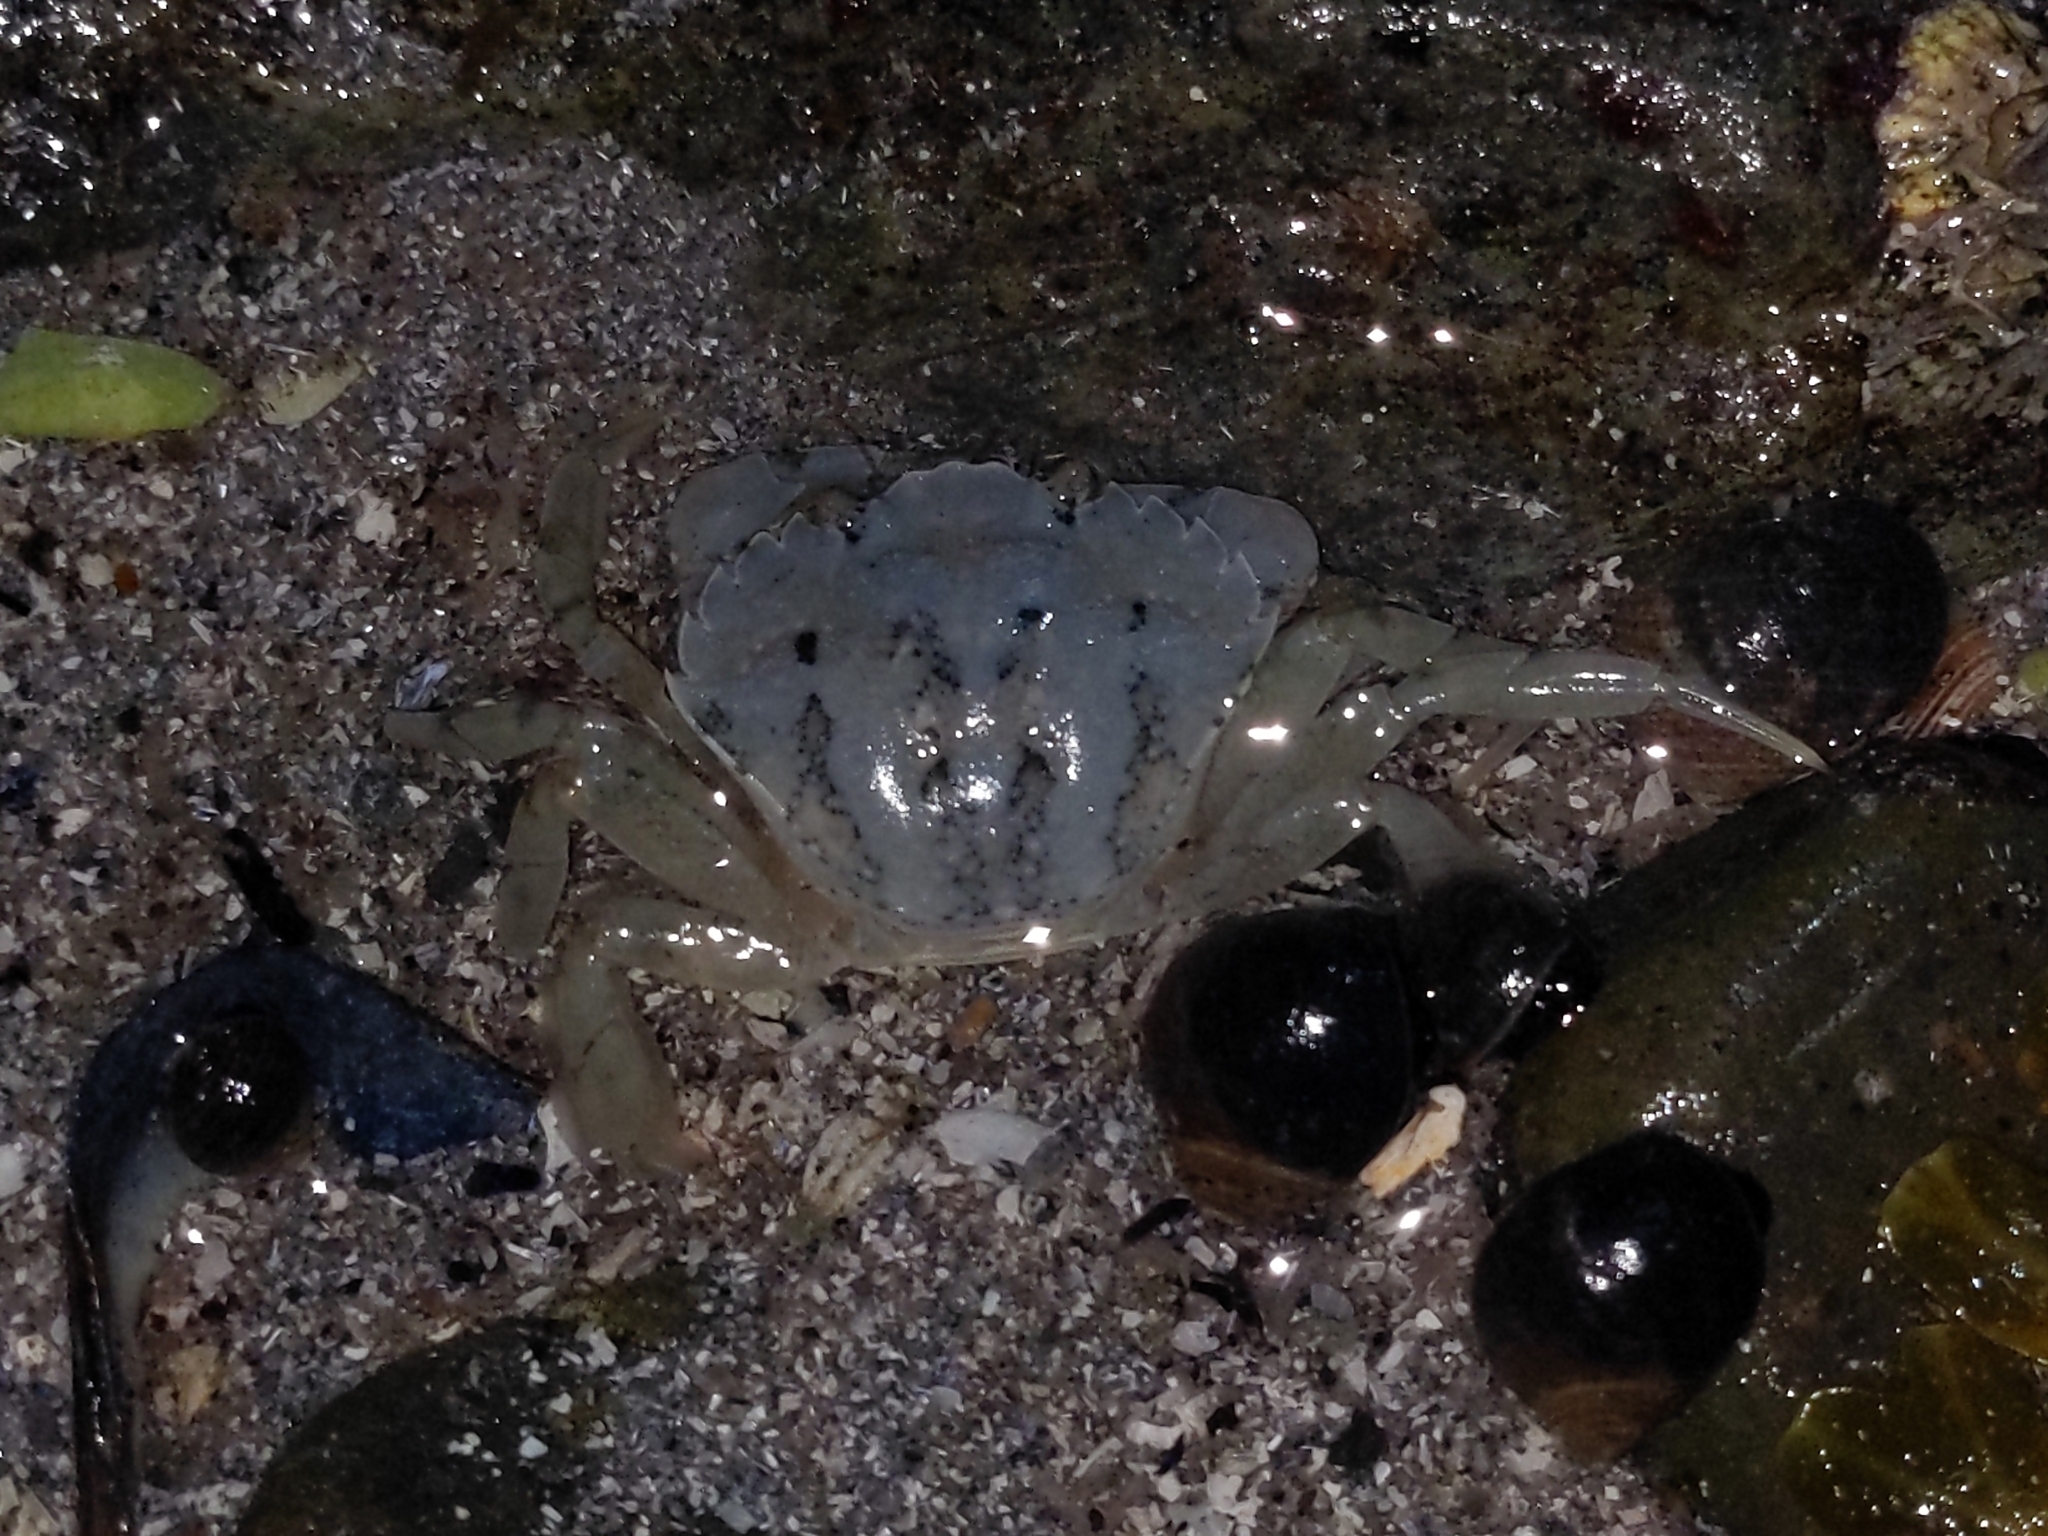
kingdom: Animalia
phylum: Arthropoda
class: Malacostraca
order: Decapoda
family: Carcinidae
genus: Carcinus
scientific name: Carcinus maenas
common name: European green crab
